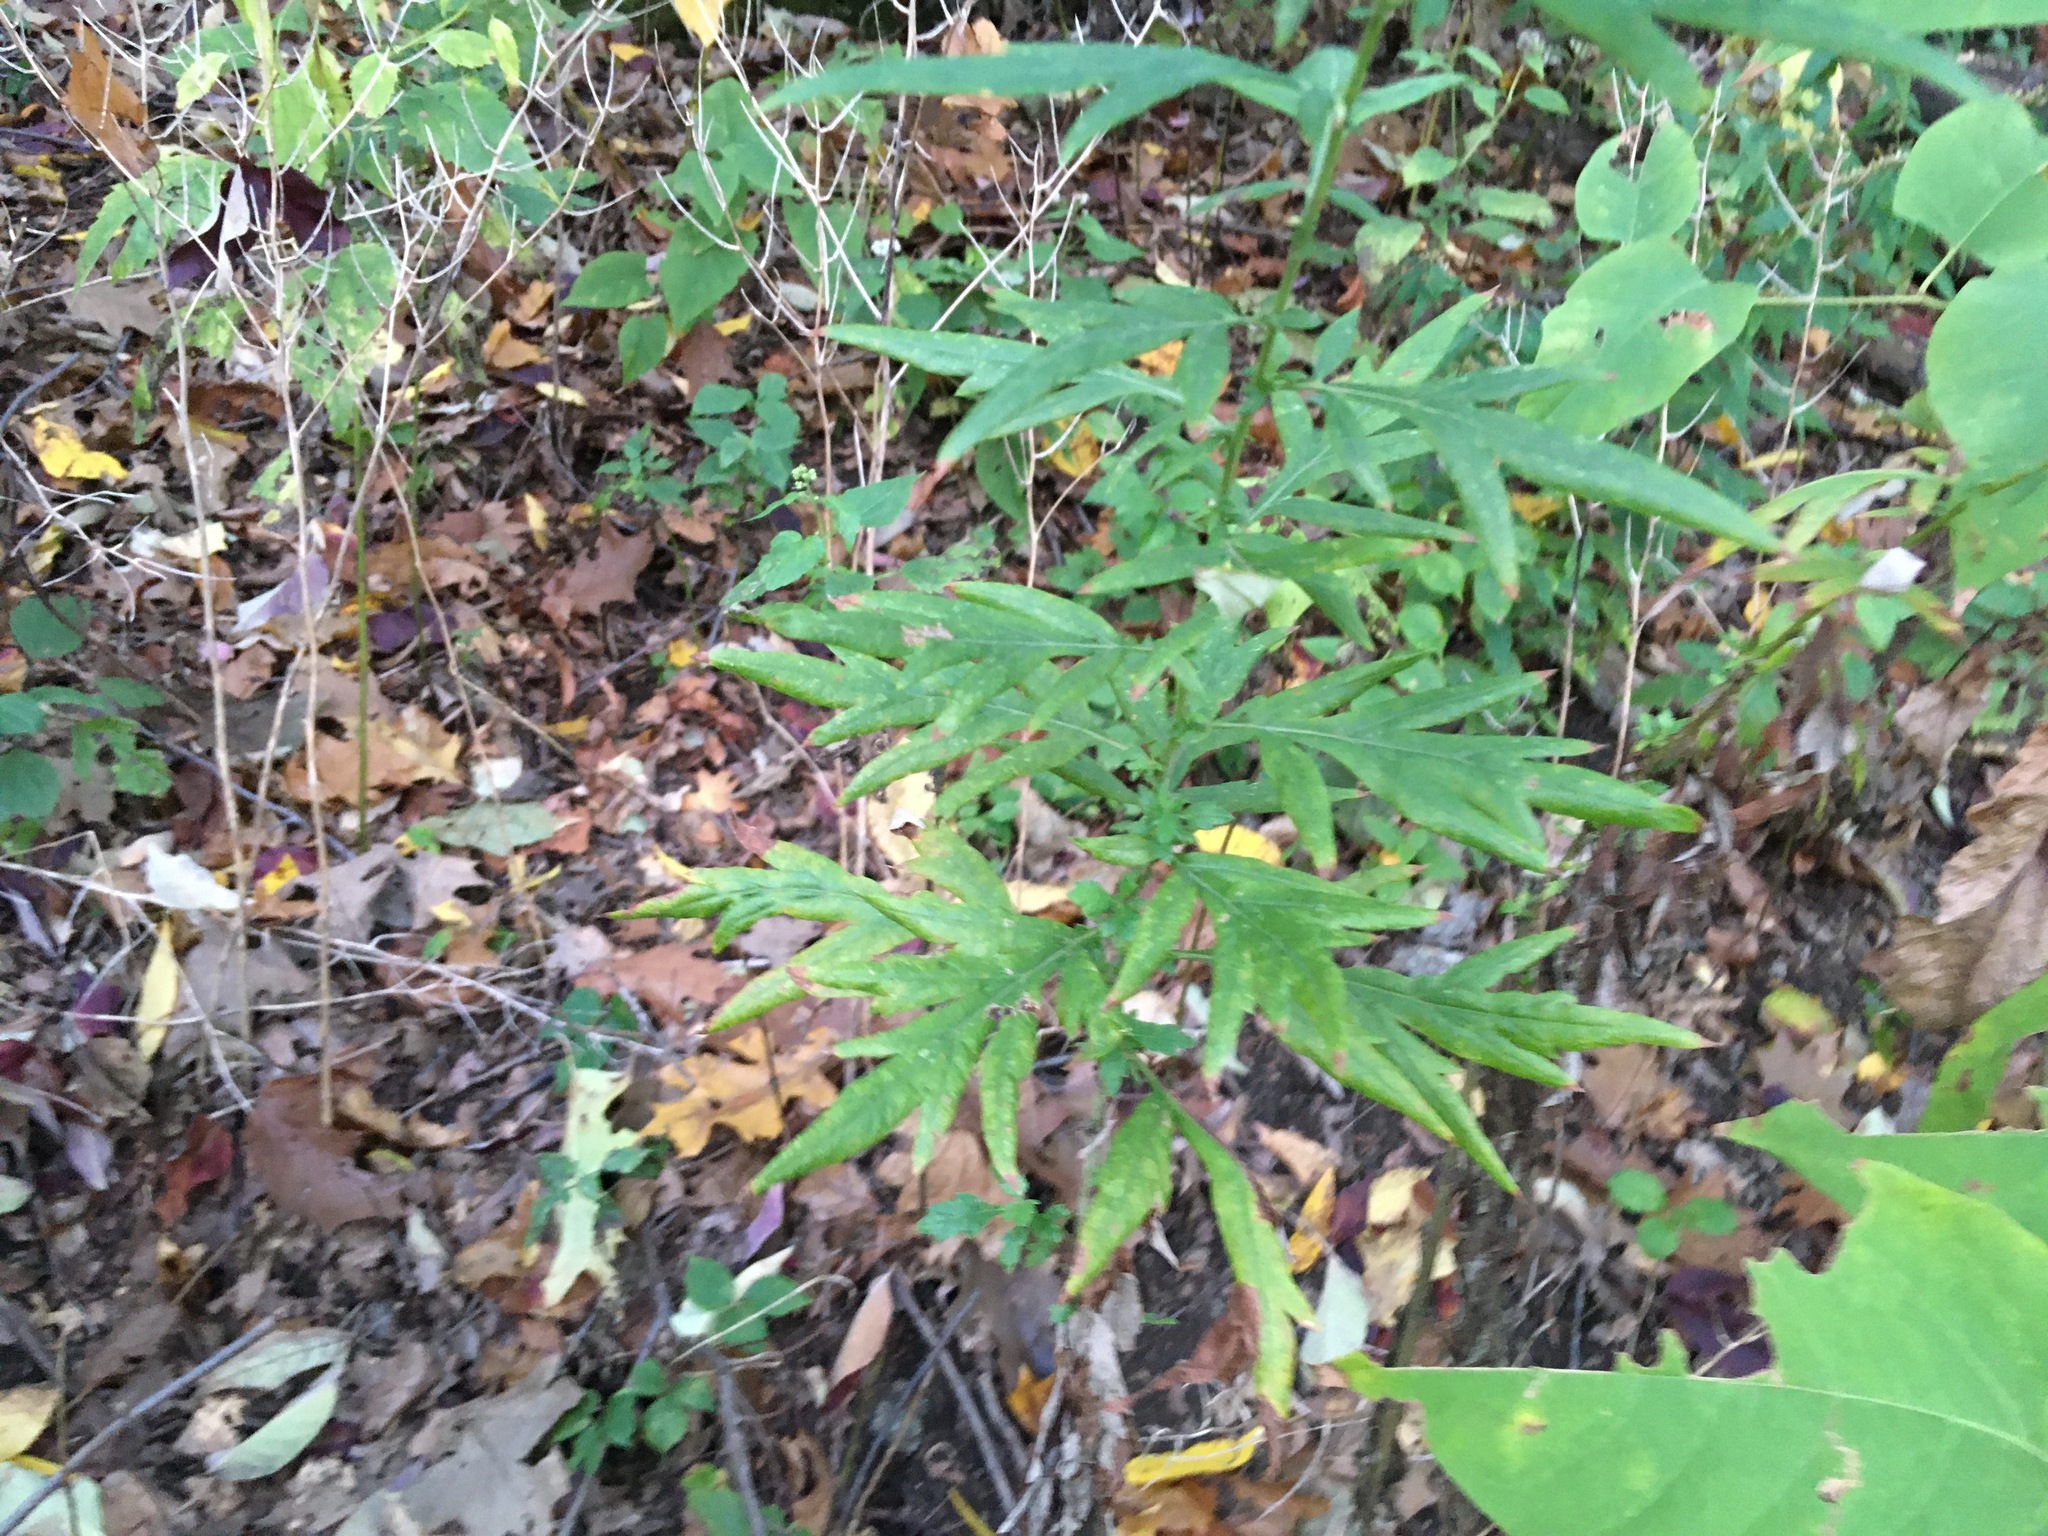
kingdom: Plantae
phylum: Tracheophyta
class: Magnoliopsida
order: Asterales
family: Asteraceae
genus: Artemisia
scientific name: Artemisia vulgaris
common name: Mugwort
